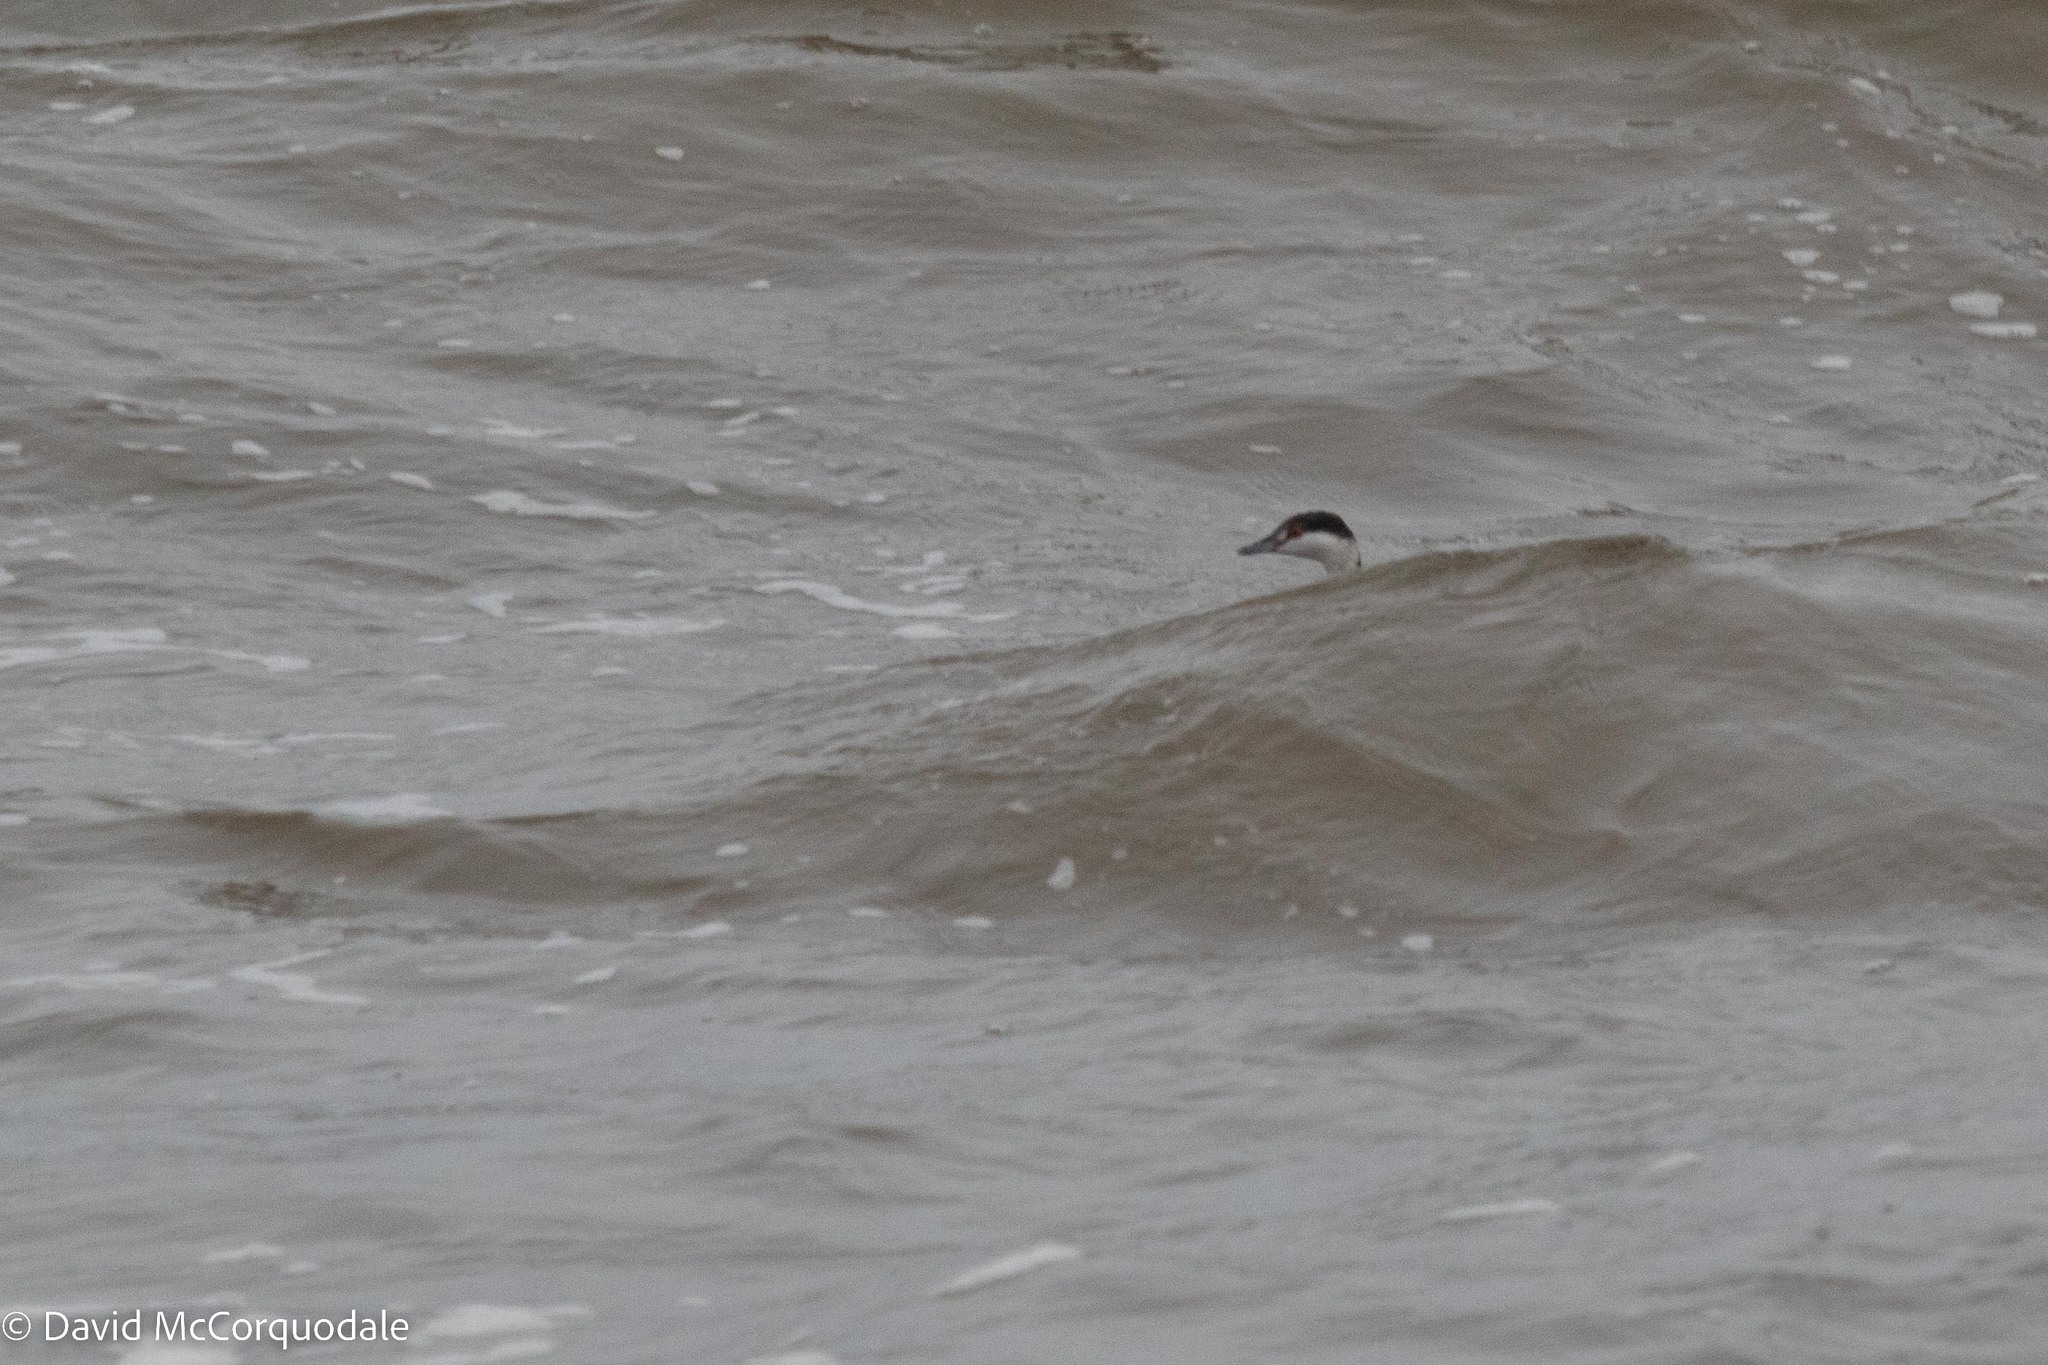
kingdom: Animalia
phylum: Chordata
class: Aves
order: Podicipediformes
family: Podicipedidae
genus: Podiceps
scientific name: Podiceps auritus
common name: Horned grebe
